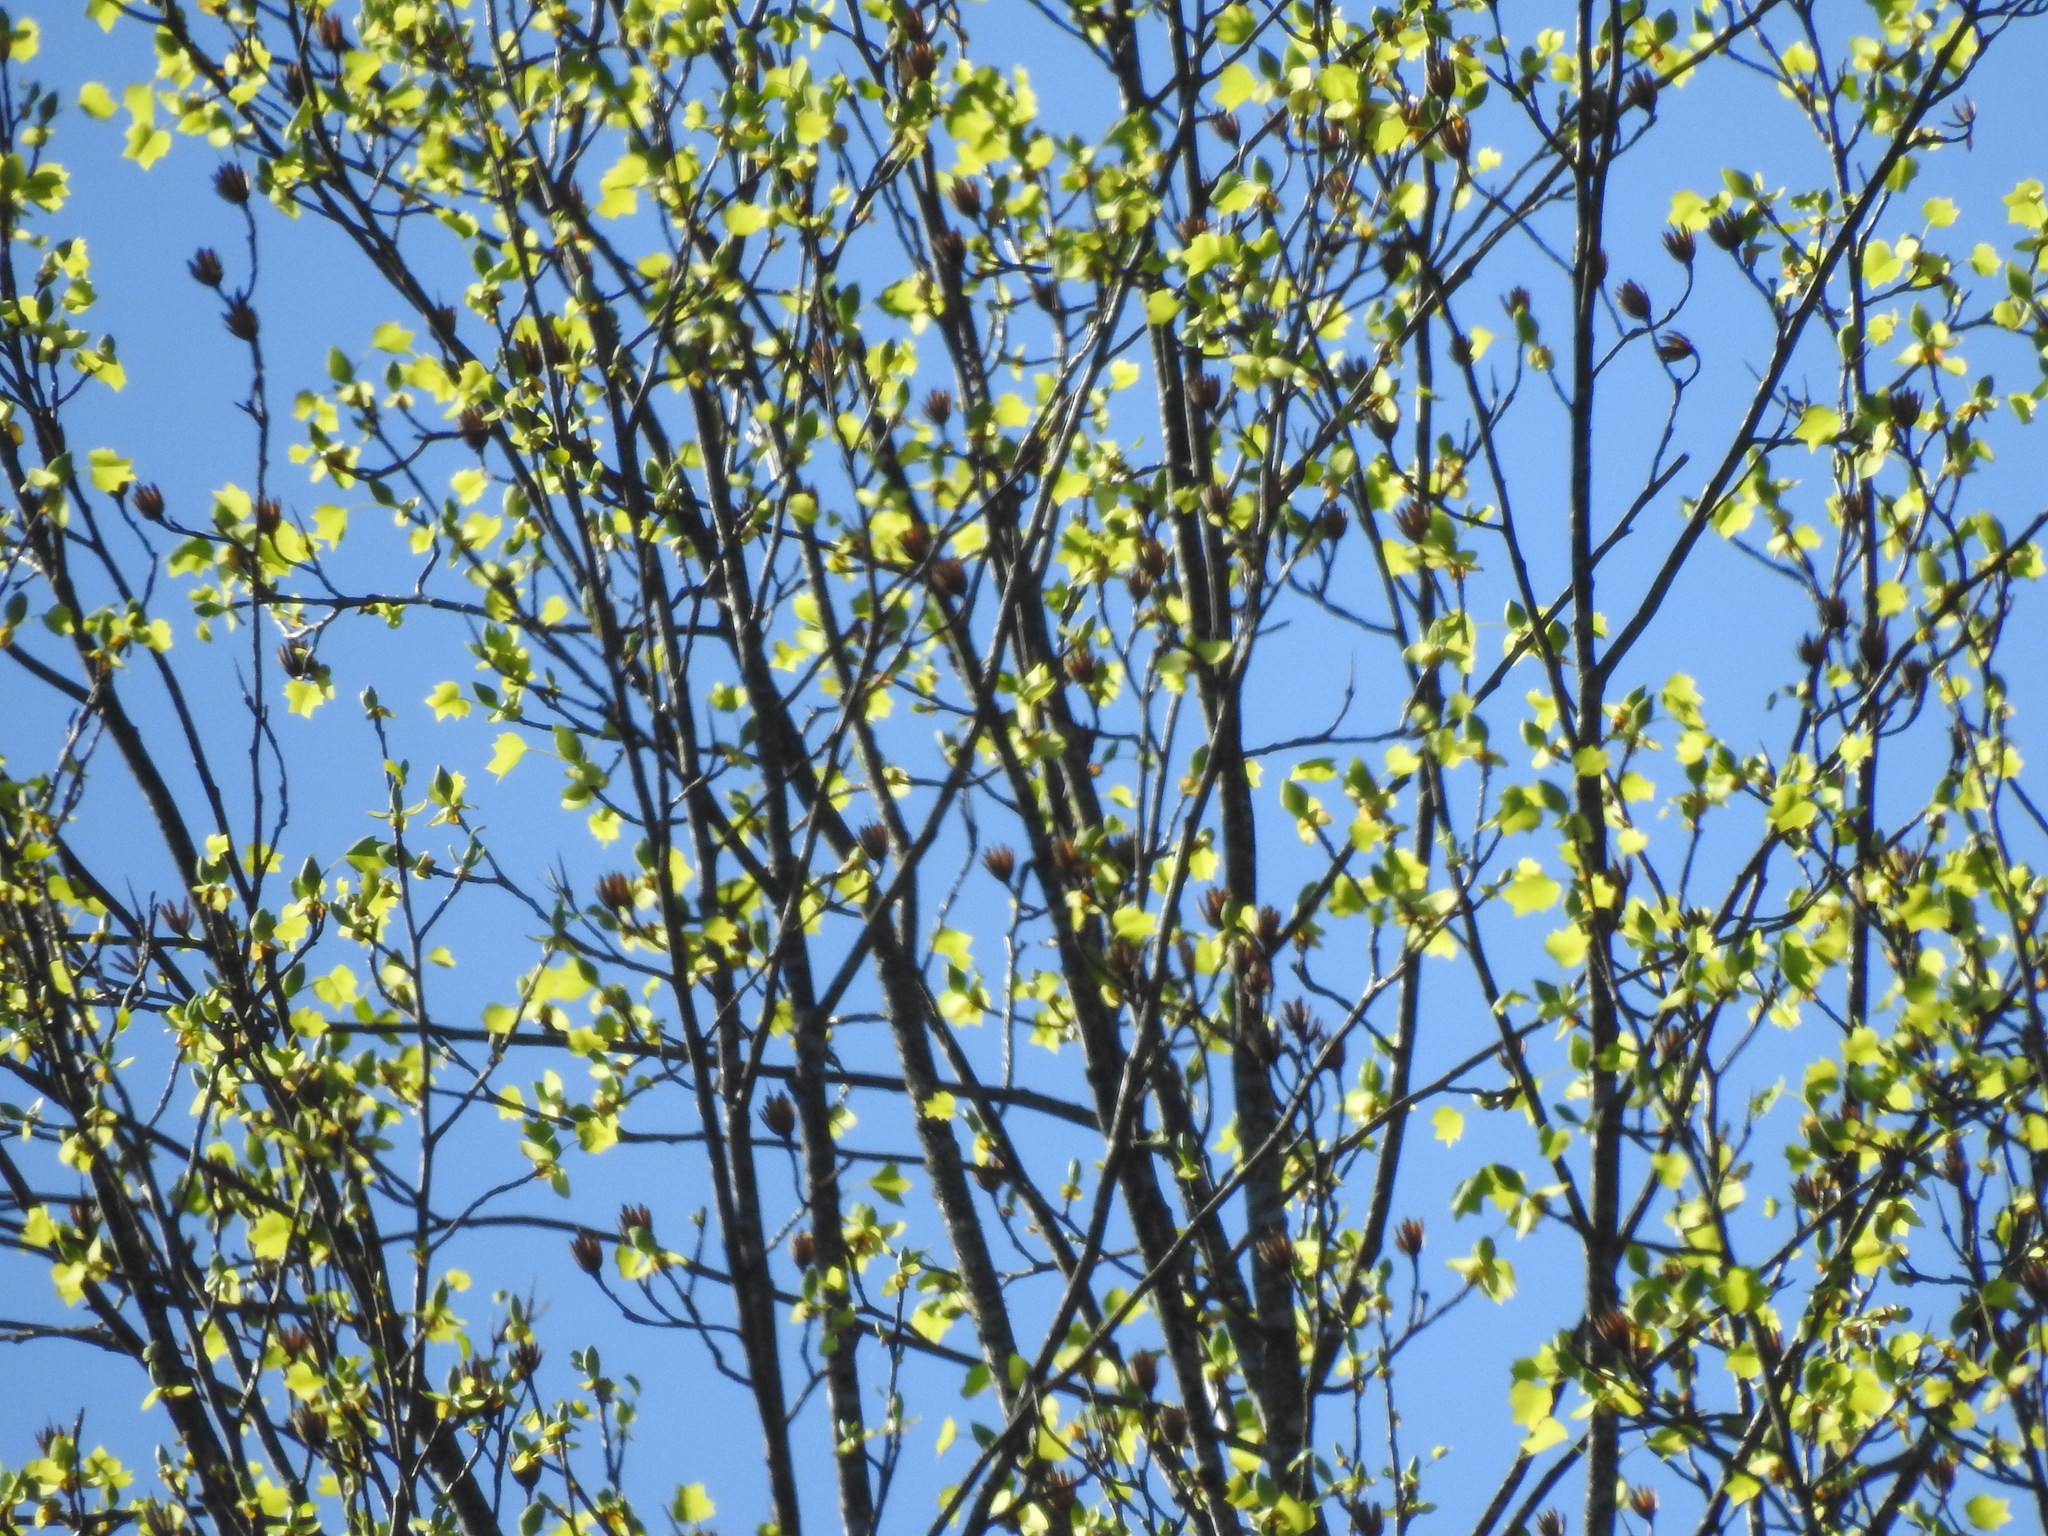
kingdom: Plantae
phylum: Tracheophyta
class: Magnoliopsida
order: Magnoliales
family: Magnoliaceae
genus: Liriodendron
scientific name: Liriodendron tulipifera
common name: Tulip tree
